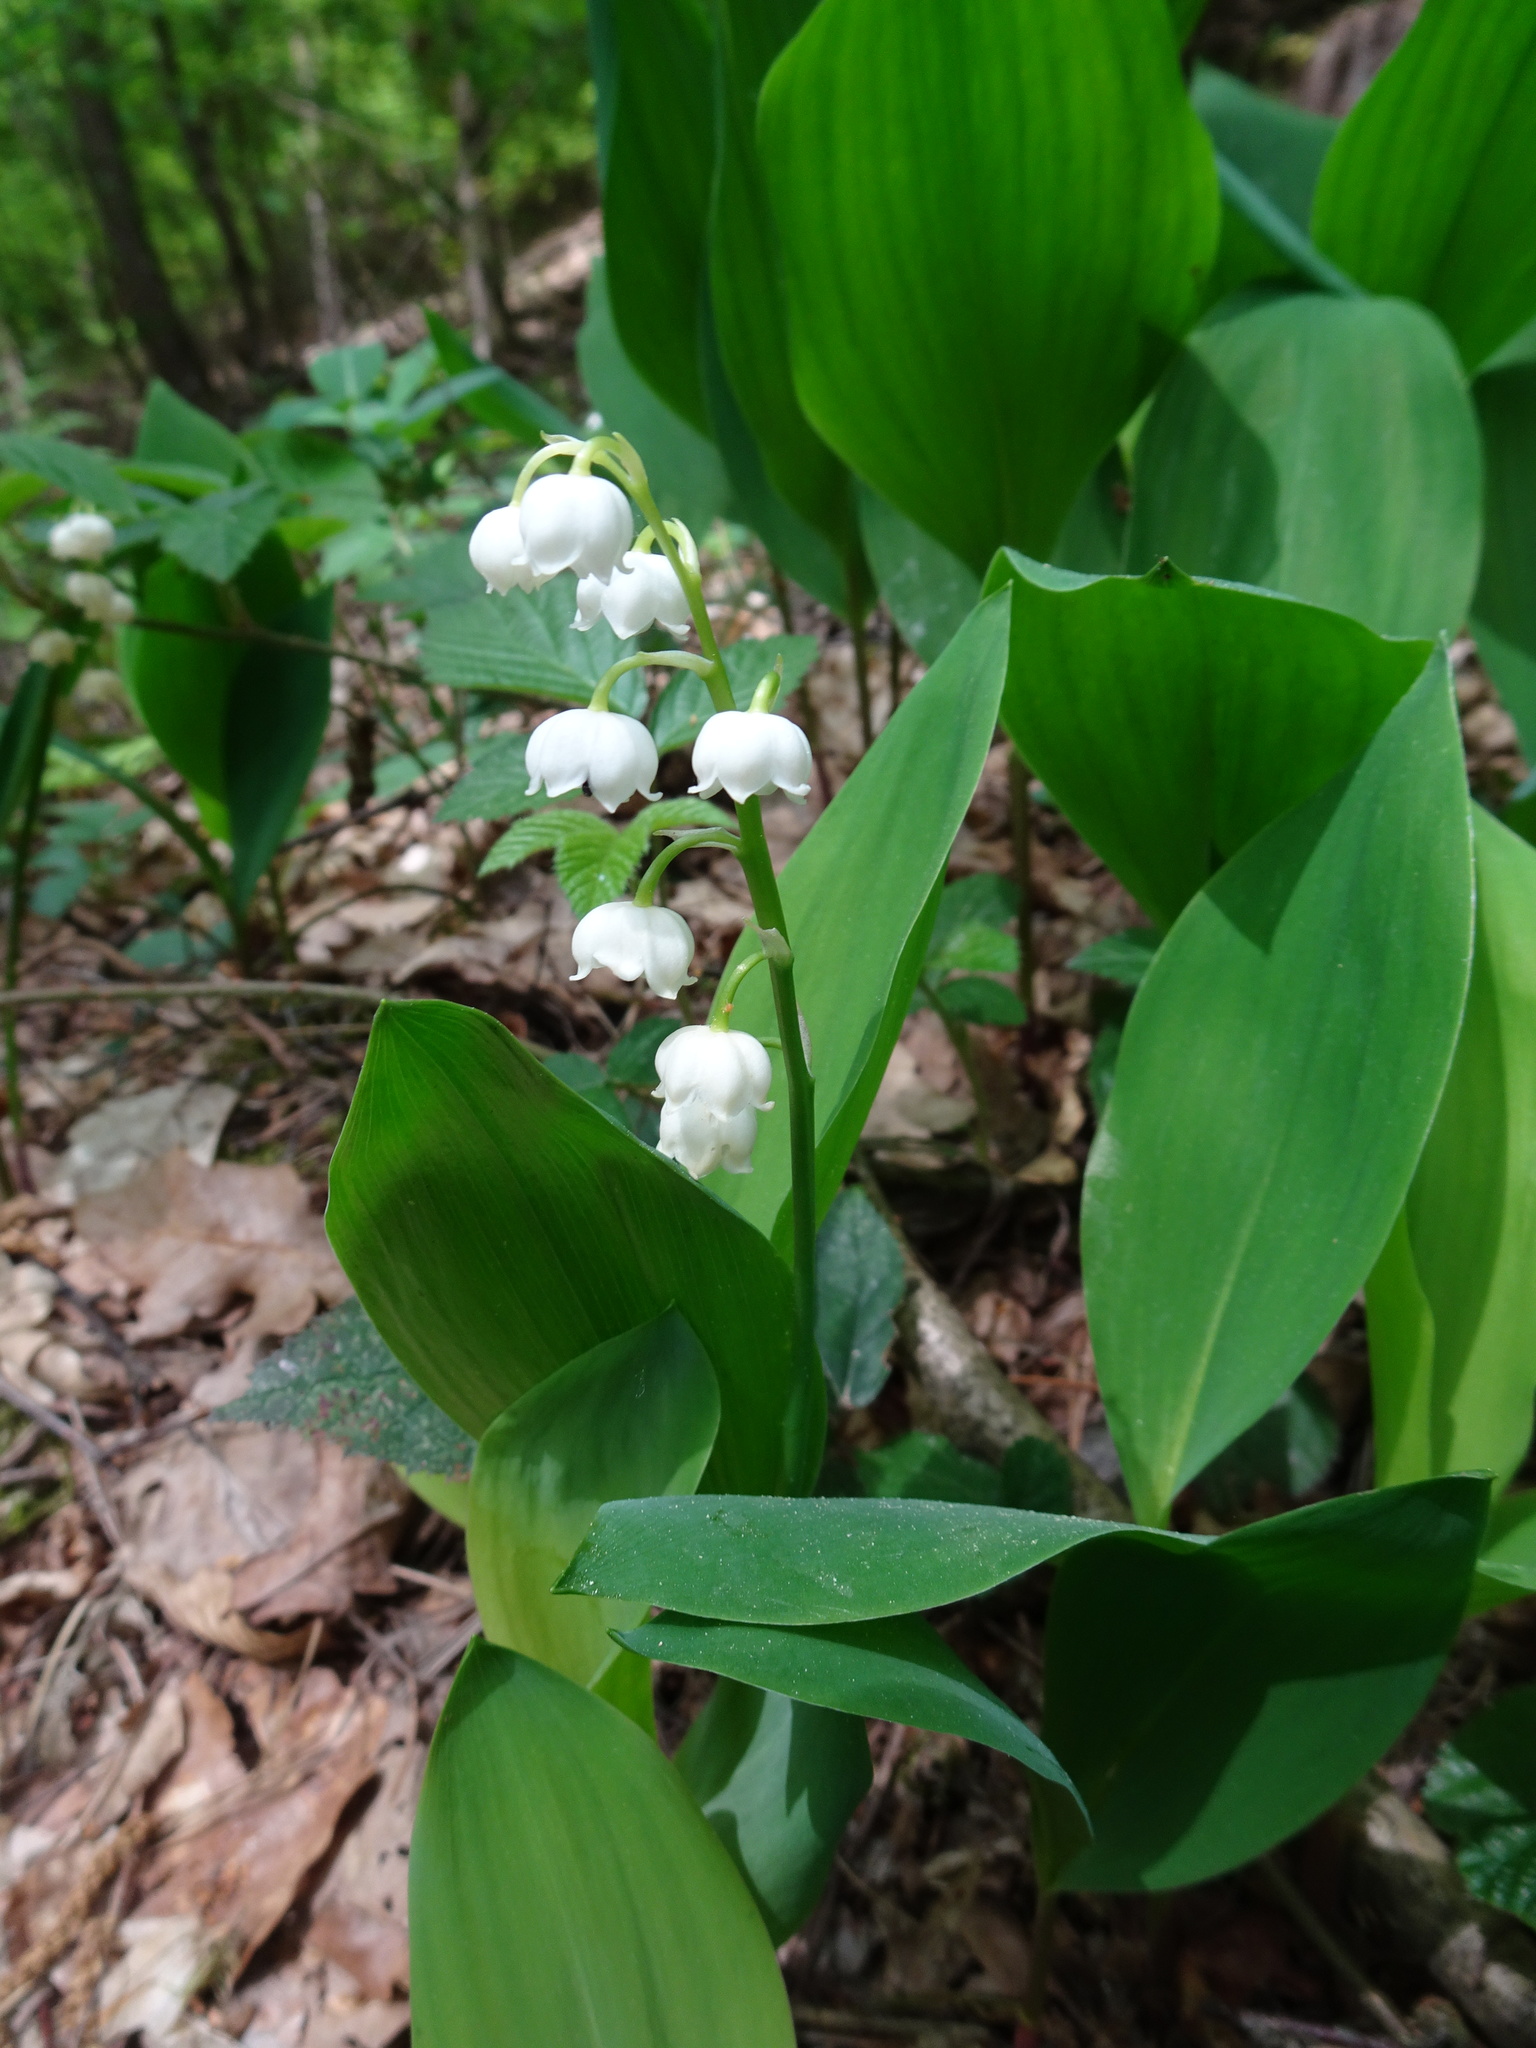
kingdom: Plantae
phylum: Tracheophyta
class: Liliopsida
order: Asparagales
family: Asparagaceae
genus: Convallaria
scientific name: Convallaria majalis
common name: Lily-of-the-valley
